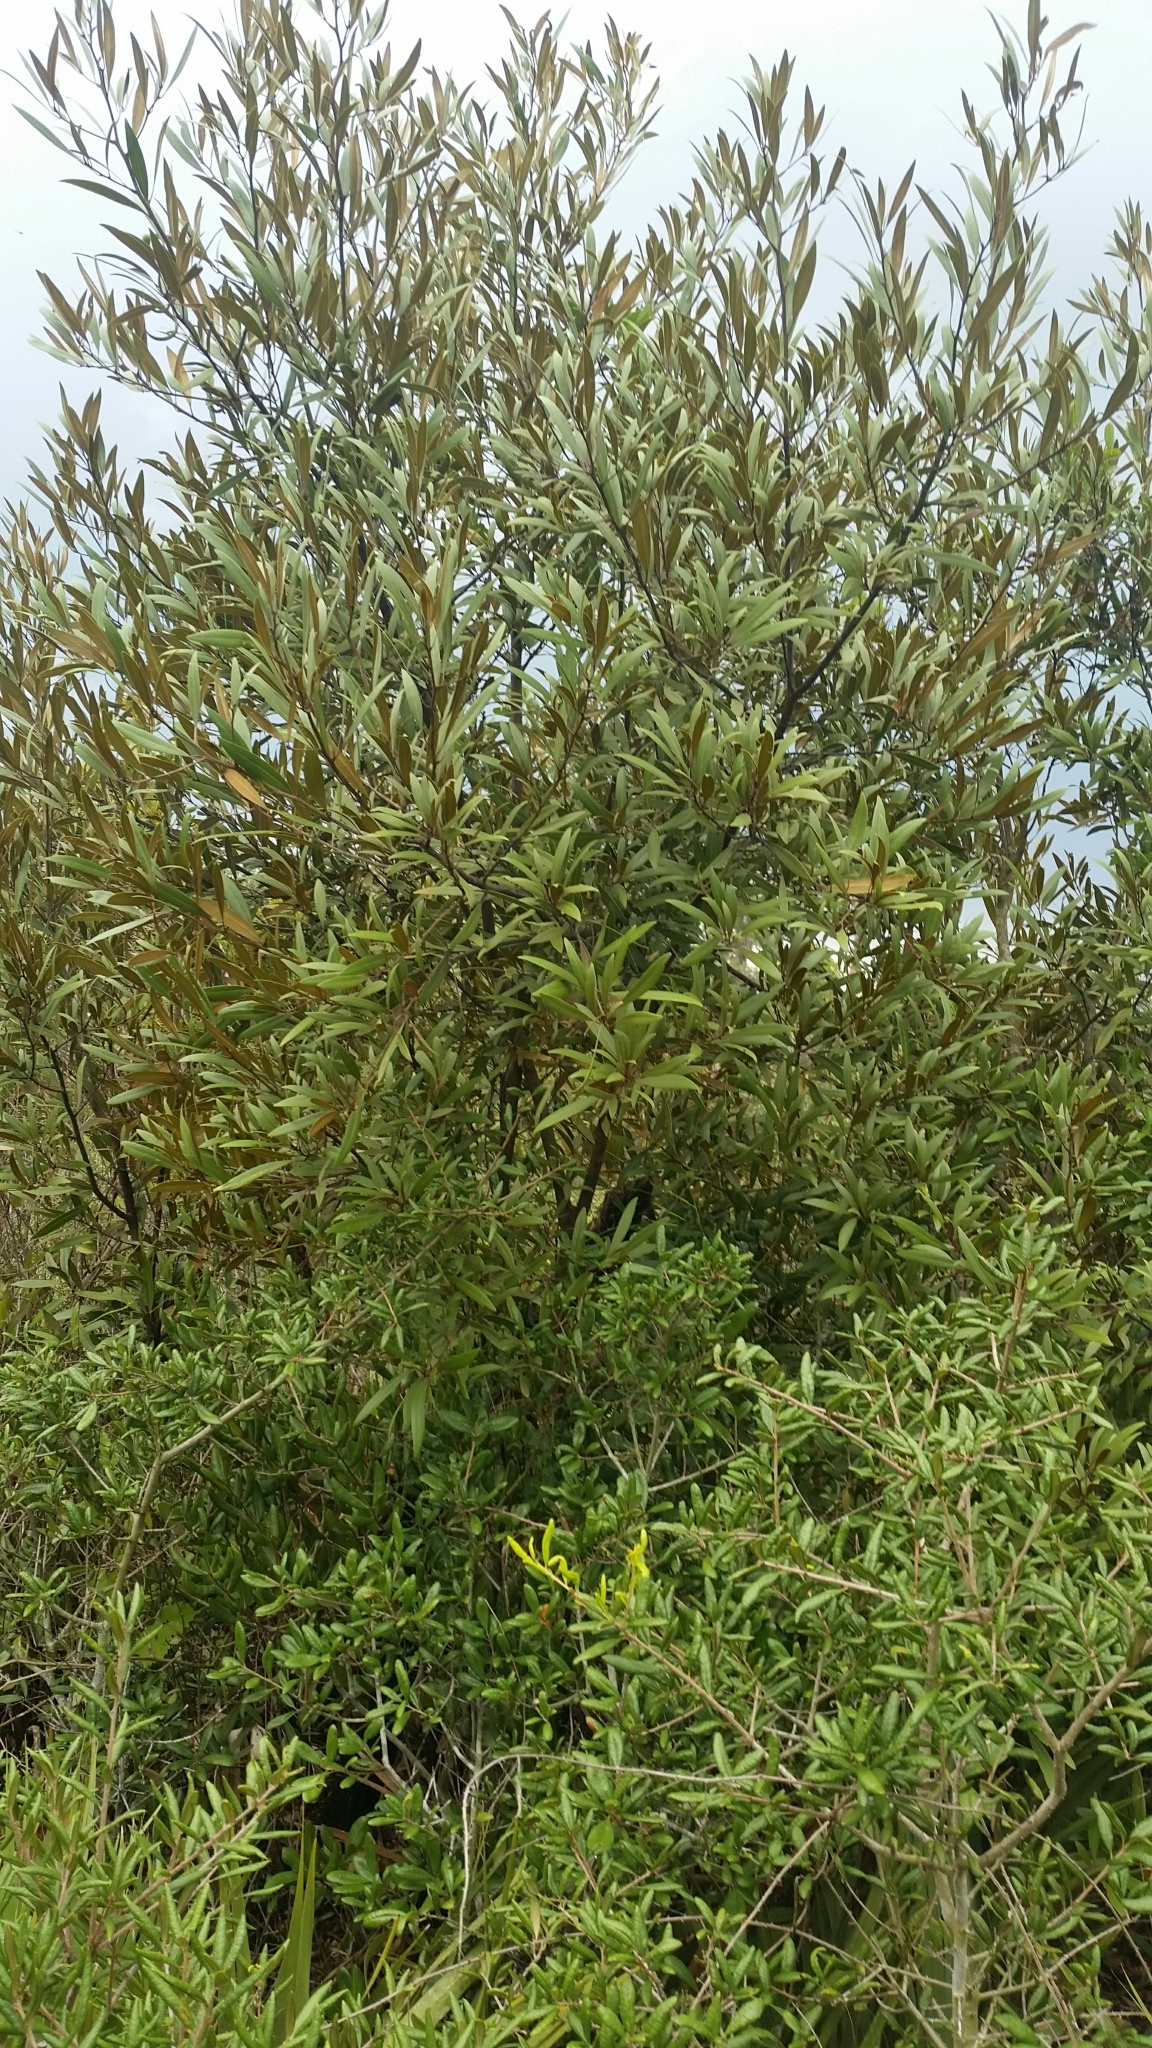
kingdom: Plantae
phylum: Tracheophyta
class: Magnoliopsida
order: Laurales
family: Lauraceae
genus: Persea
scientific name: Persea humilis
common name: Silkbay
